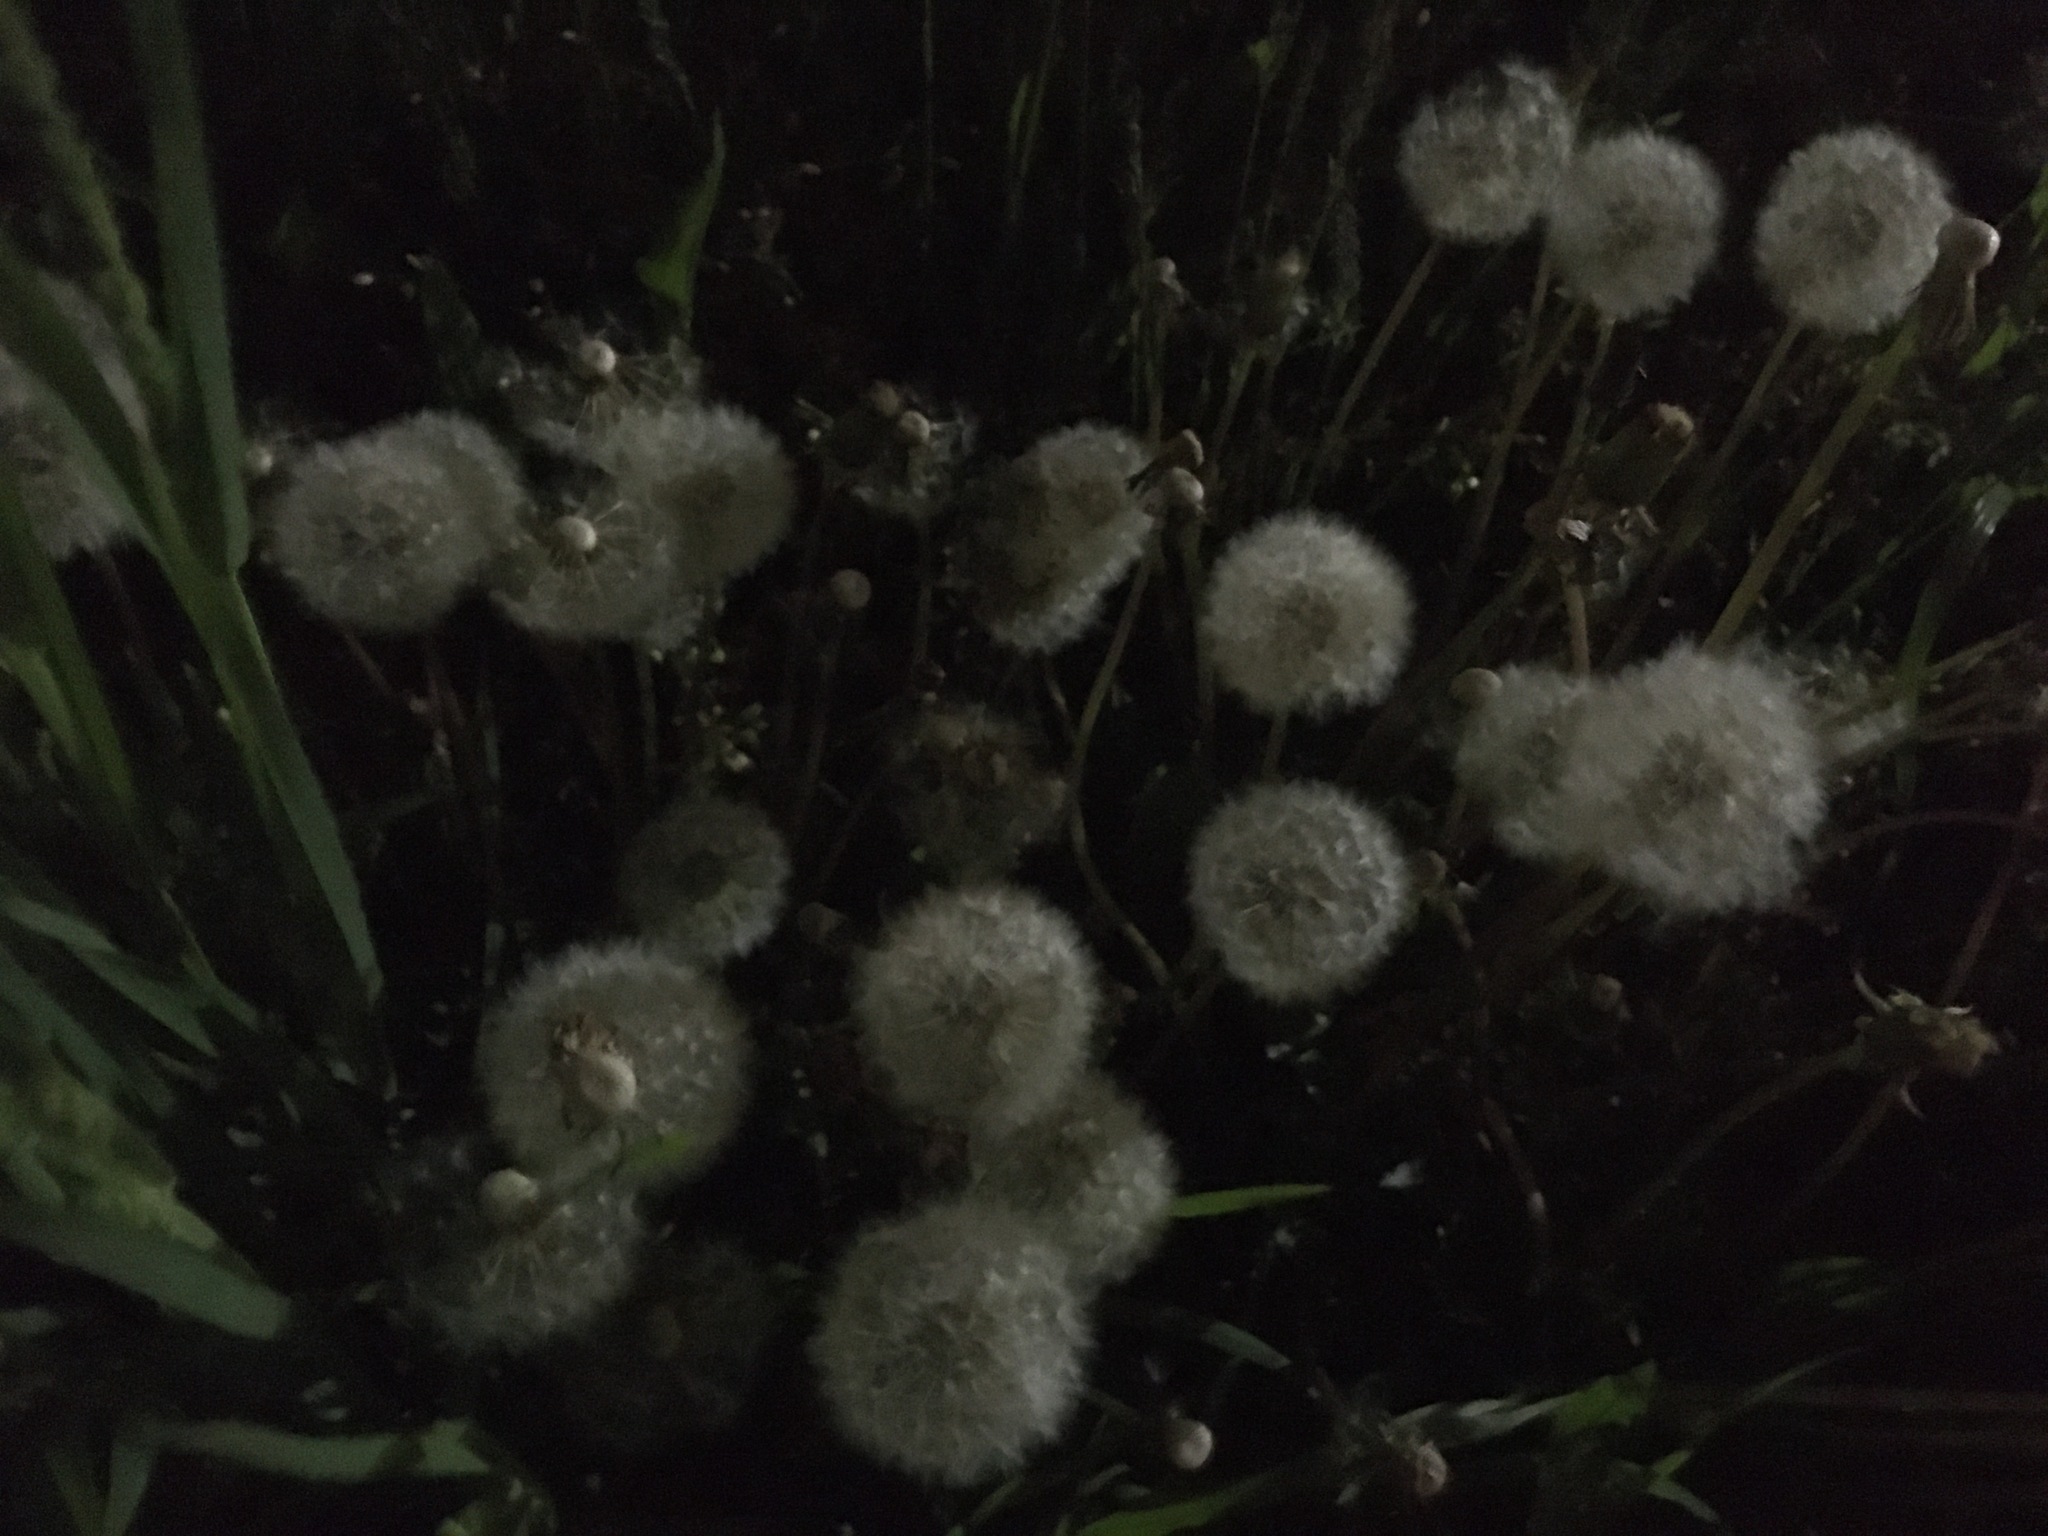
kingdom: Plantae
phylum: Tracheophyta
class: Magnoliopsida
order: Asterales
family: Asteraceae
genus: Taraxacum
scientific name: Taraxacum officinale
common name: Common dandelion
